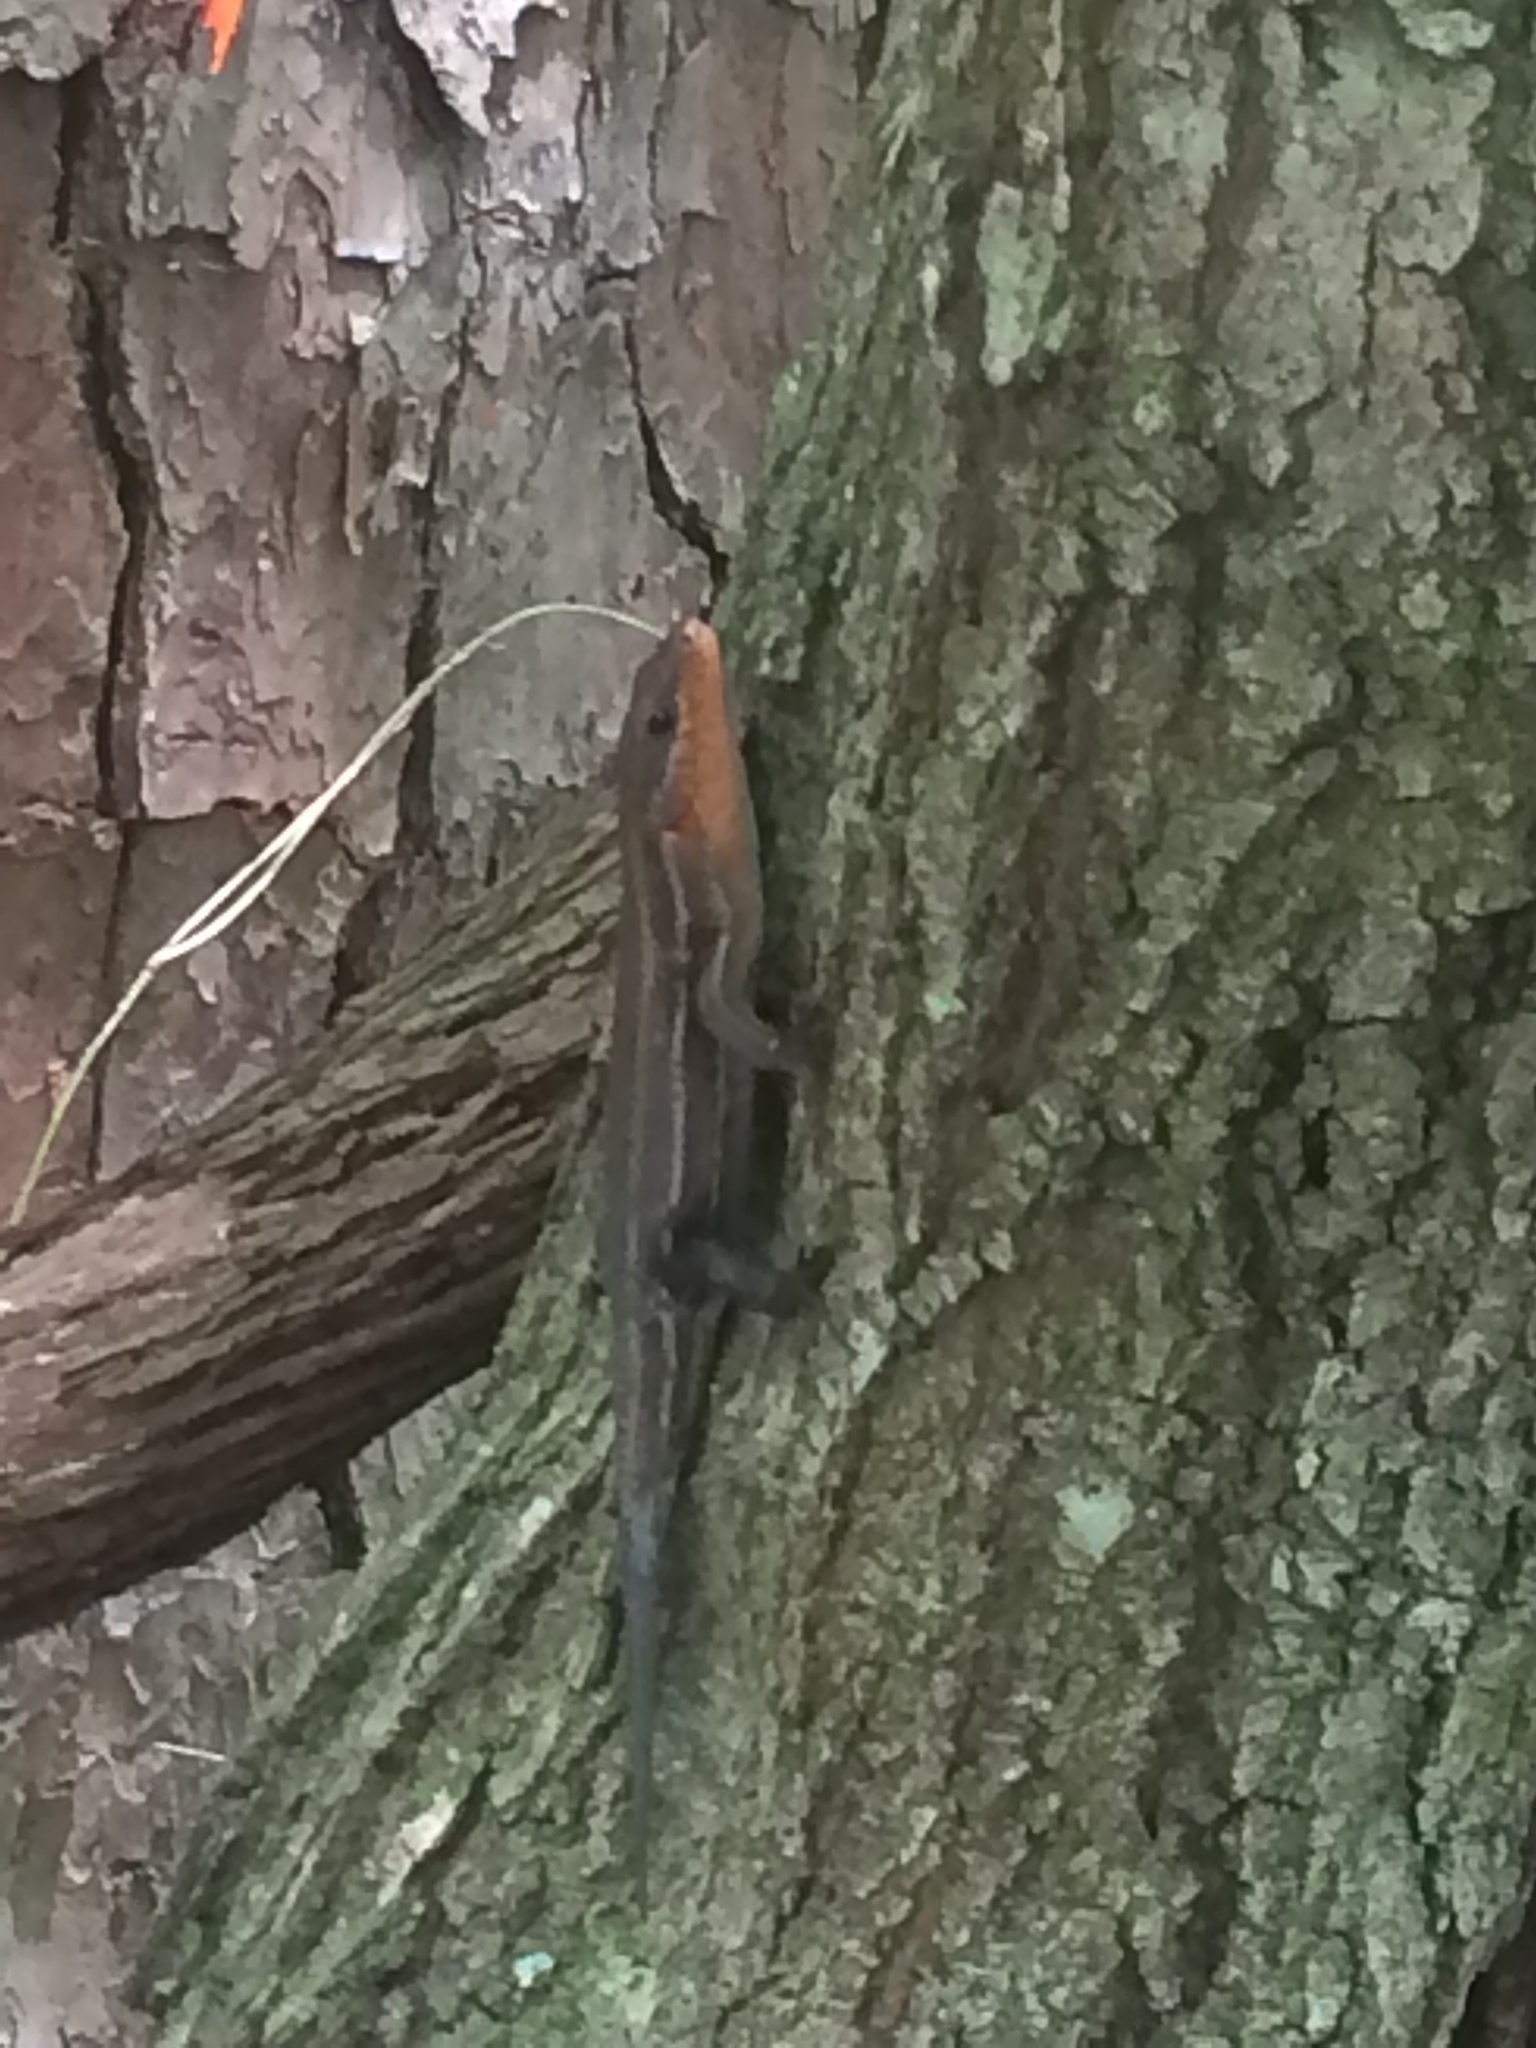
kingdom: Animalia
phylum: Chordata
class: Squamata
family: Scincidae
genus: Plestiodon
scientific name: Plestiodon laticeps
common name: Broadhead skink
